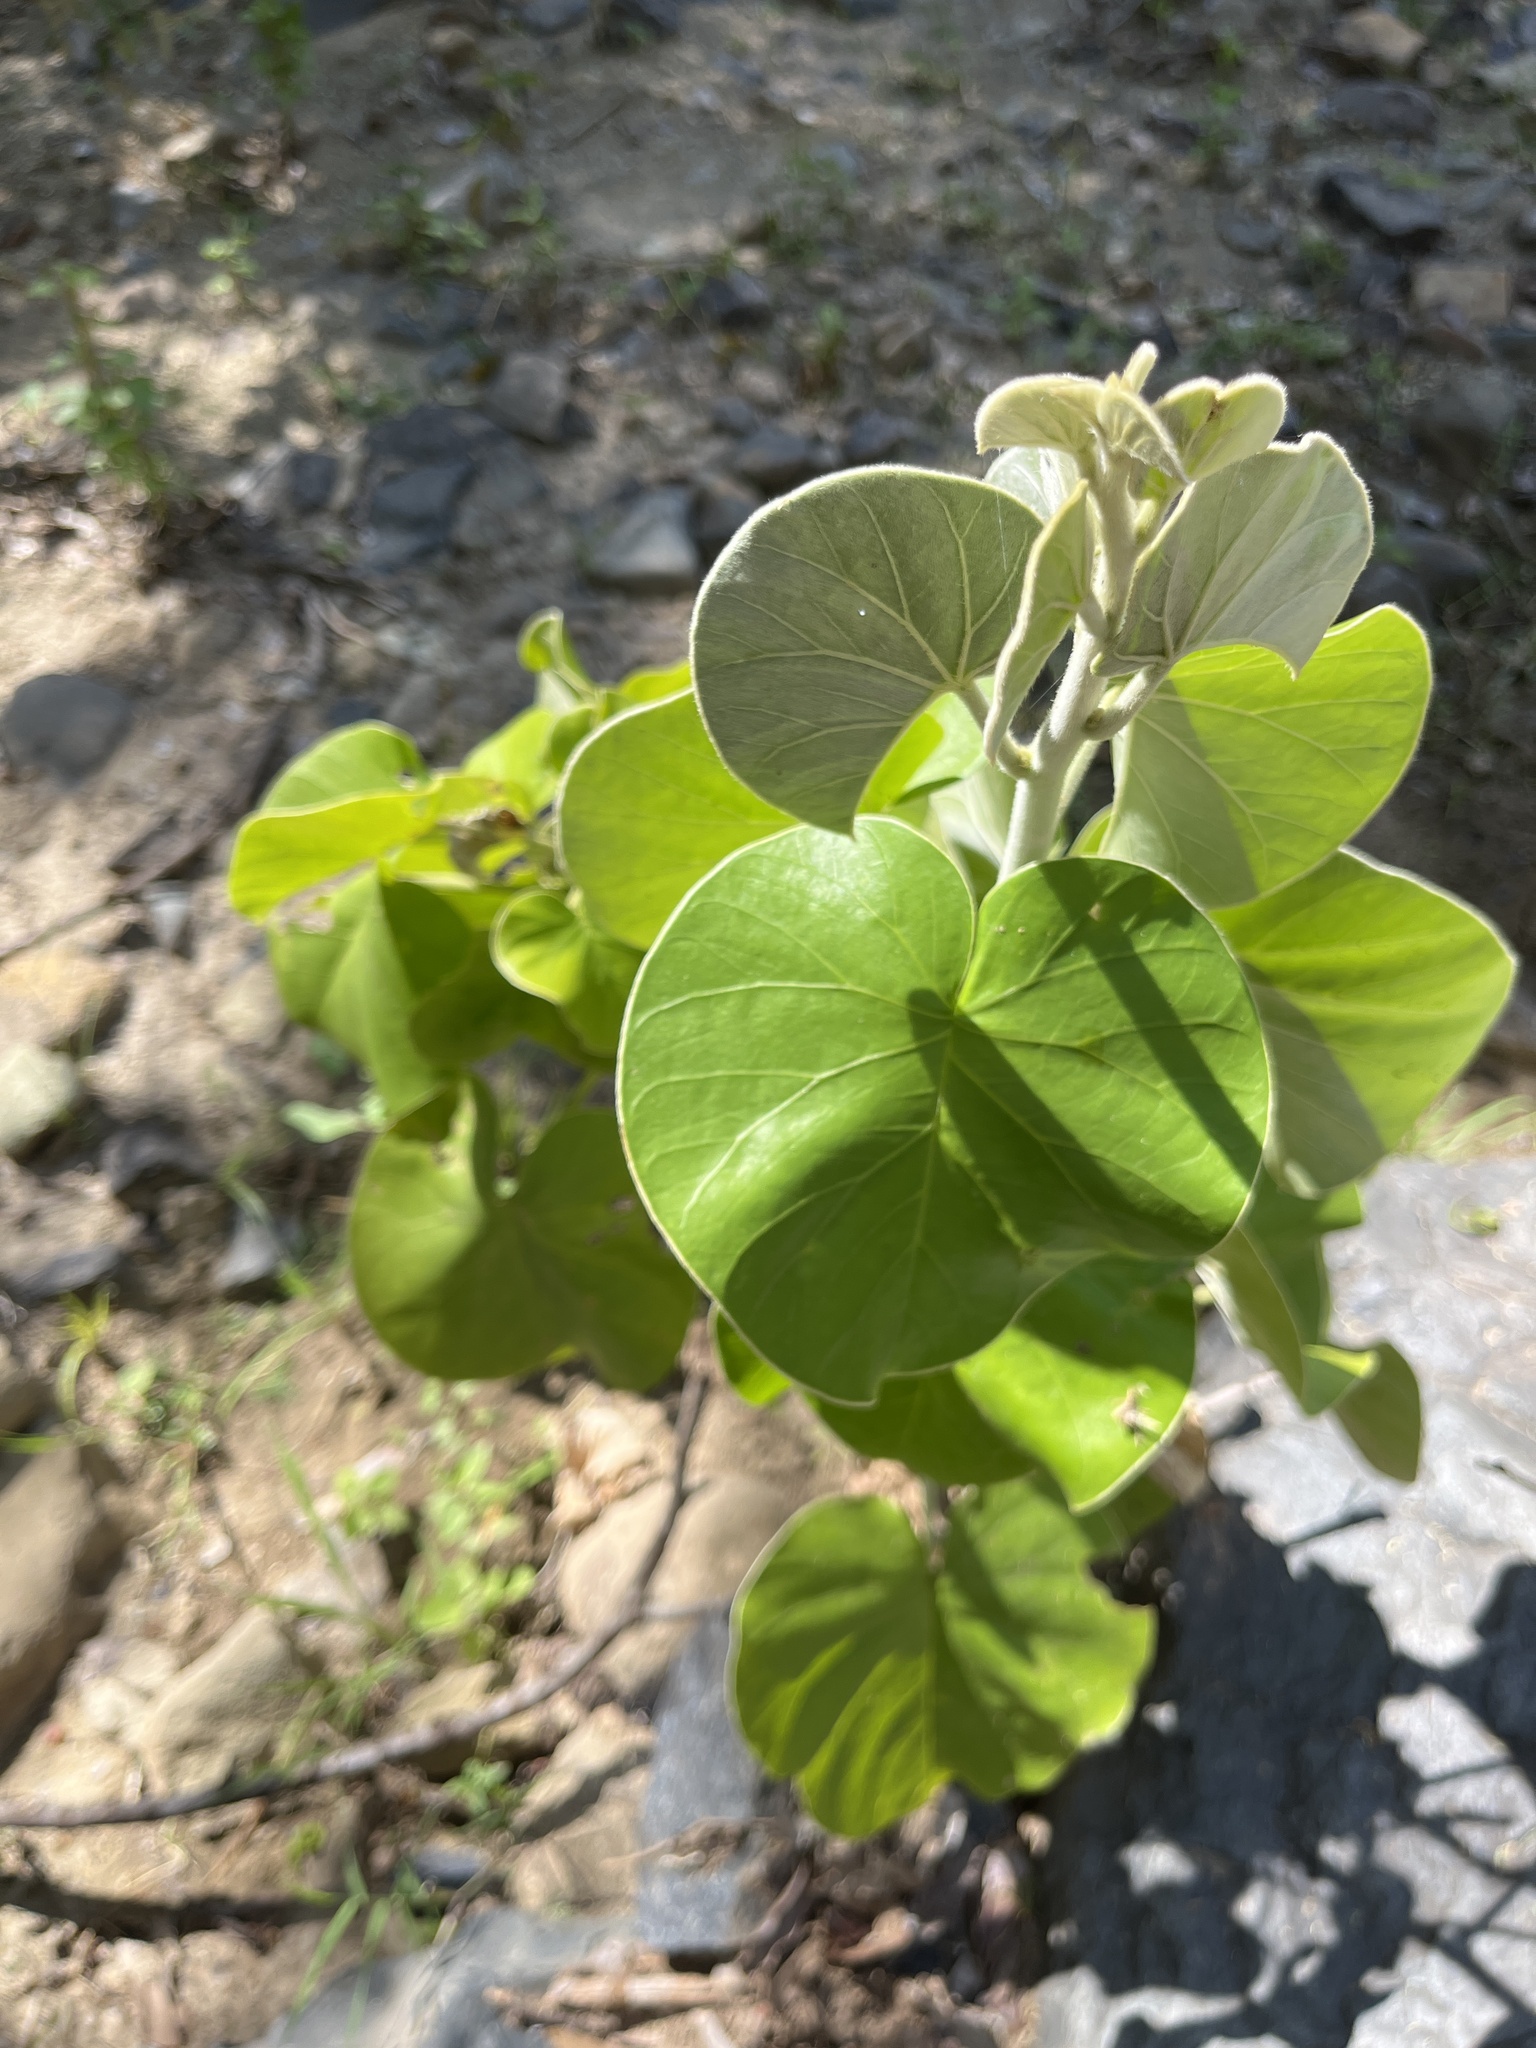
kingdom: Plantae
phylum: Tracheophyta
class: Magnoliopsida
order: Malvales
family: Malvaceae
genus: Talipariti
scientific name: Talipariti tiliaceum
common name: Sea hibiscus
